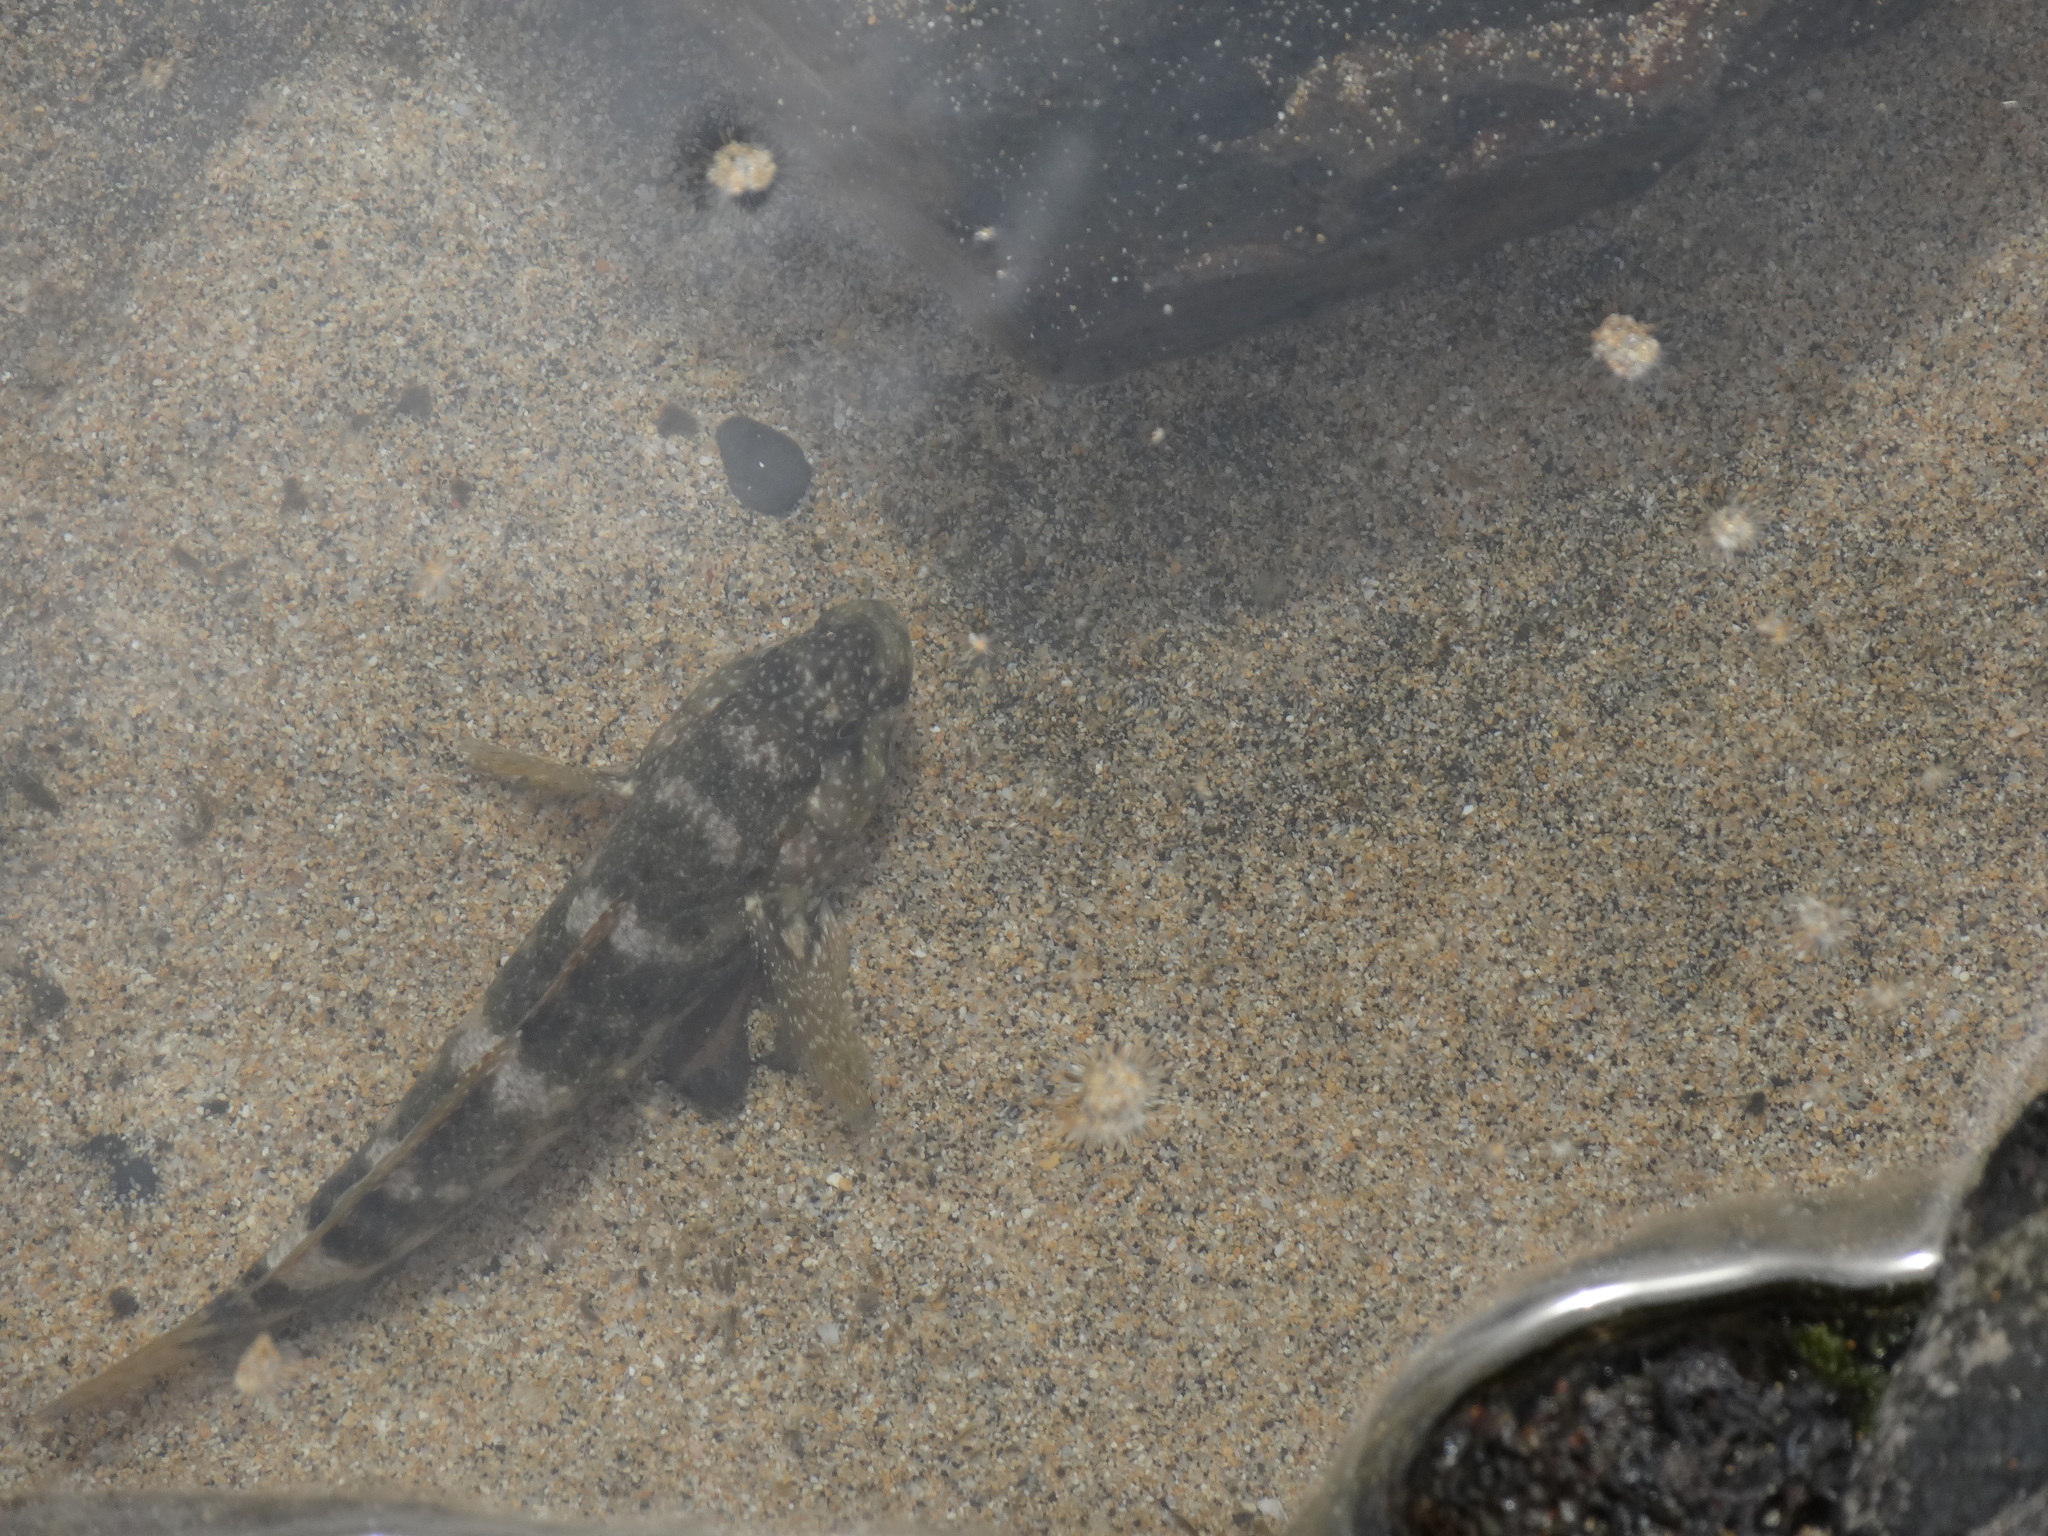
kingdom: Animalia
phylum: Chordata
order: Perciformes
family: Gobiidae
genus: Mauligobius
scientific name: Mauligobius maderensis
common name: Rock goby
